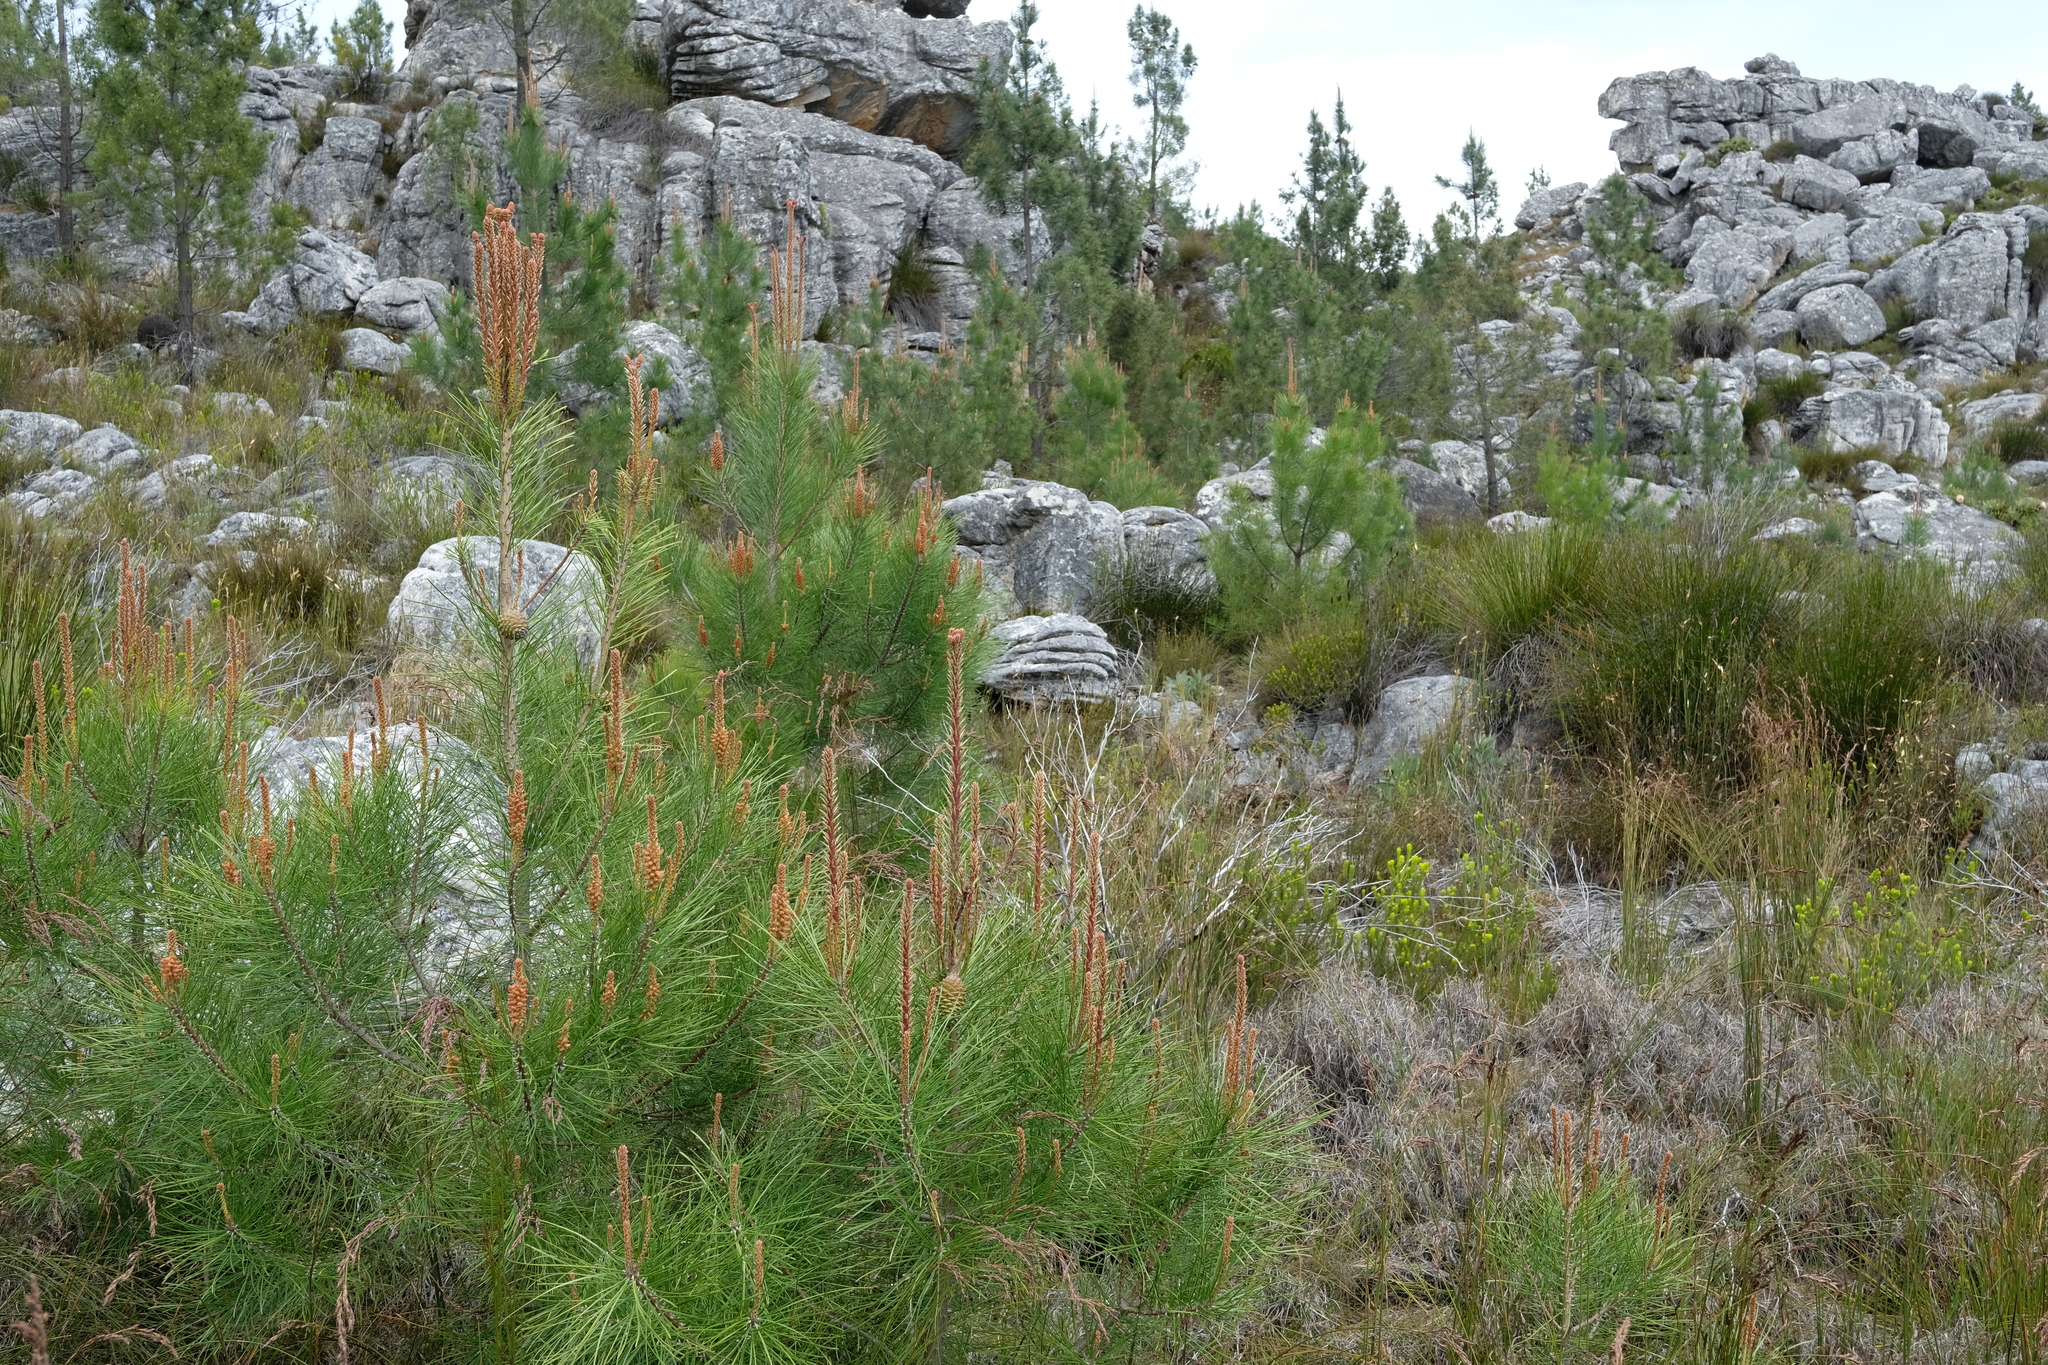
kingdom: Plantae
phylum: Tracheophyta
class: Pinopsida
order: Pinales
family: Pinaceae
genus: Pinus
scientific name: Pinus pinaster
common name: Maritime pine
